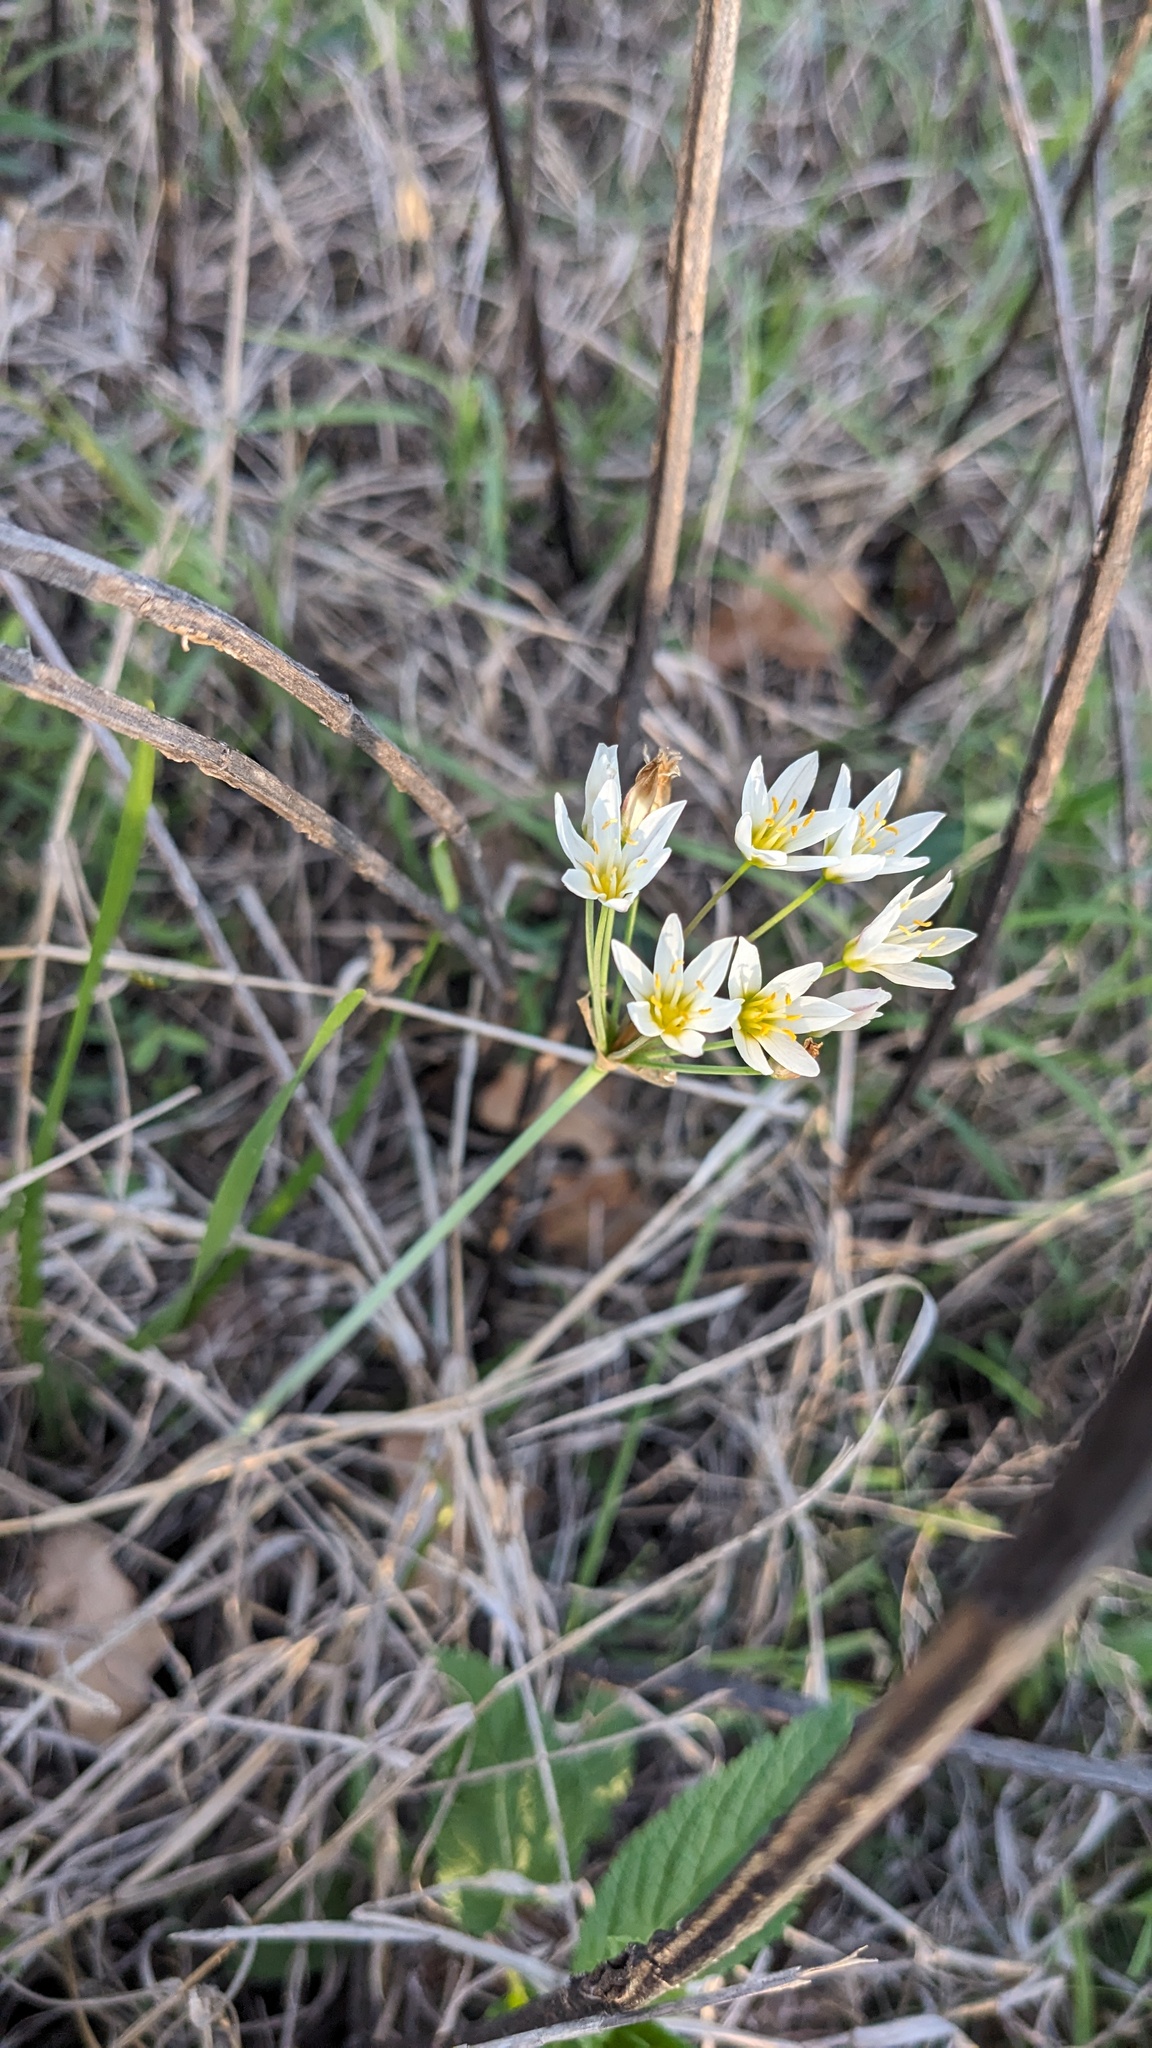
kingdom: Plantae
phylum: Tracheophyta
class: Liliopsida
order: Asparagales
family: Amaryllidaceae
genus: Nothoscordum
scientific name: Nothoscordum bivalve
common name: Crow-poison
